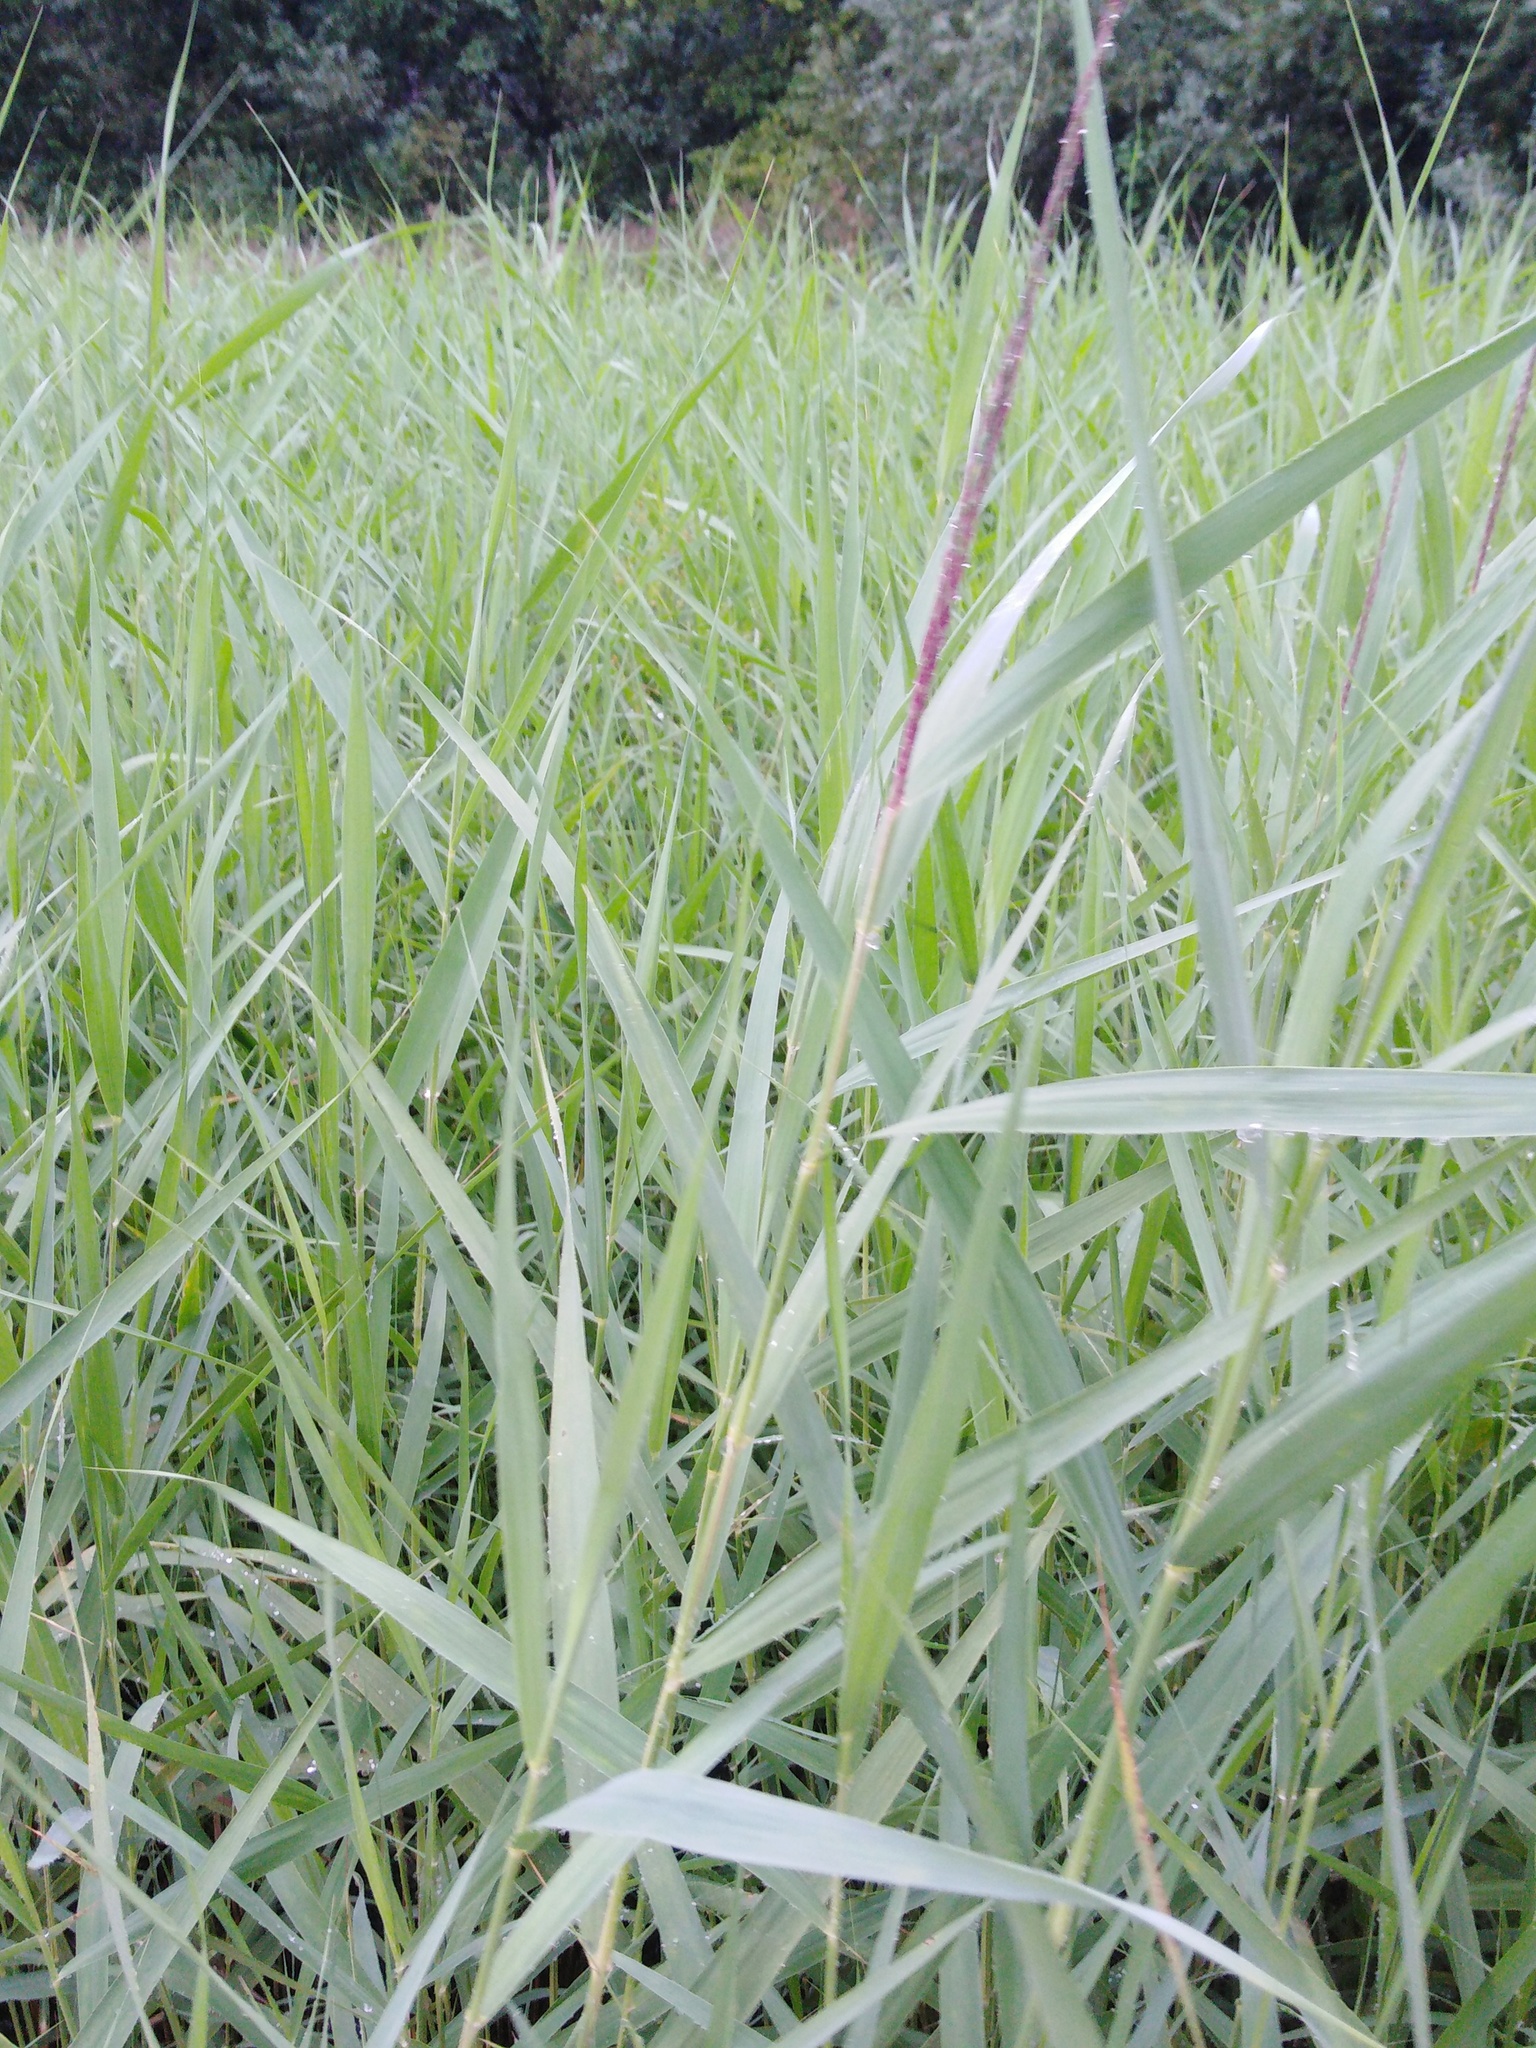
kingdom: Plantae
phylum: Tracheophyta
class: Liliopsida
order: Poales
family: Poaceae
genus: Phragmites
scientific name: Phragmites australis
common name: Common reed
